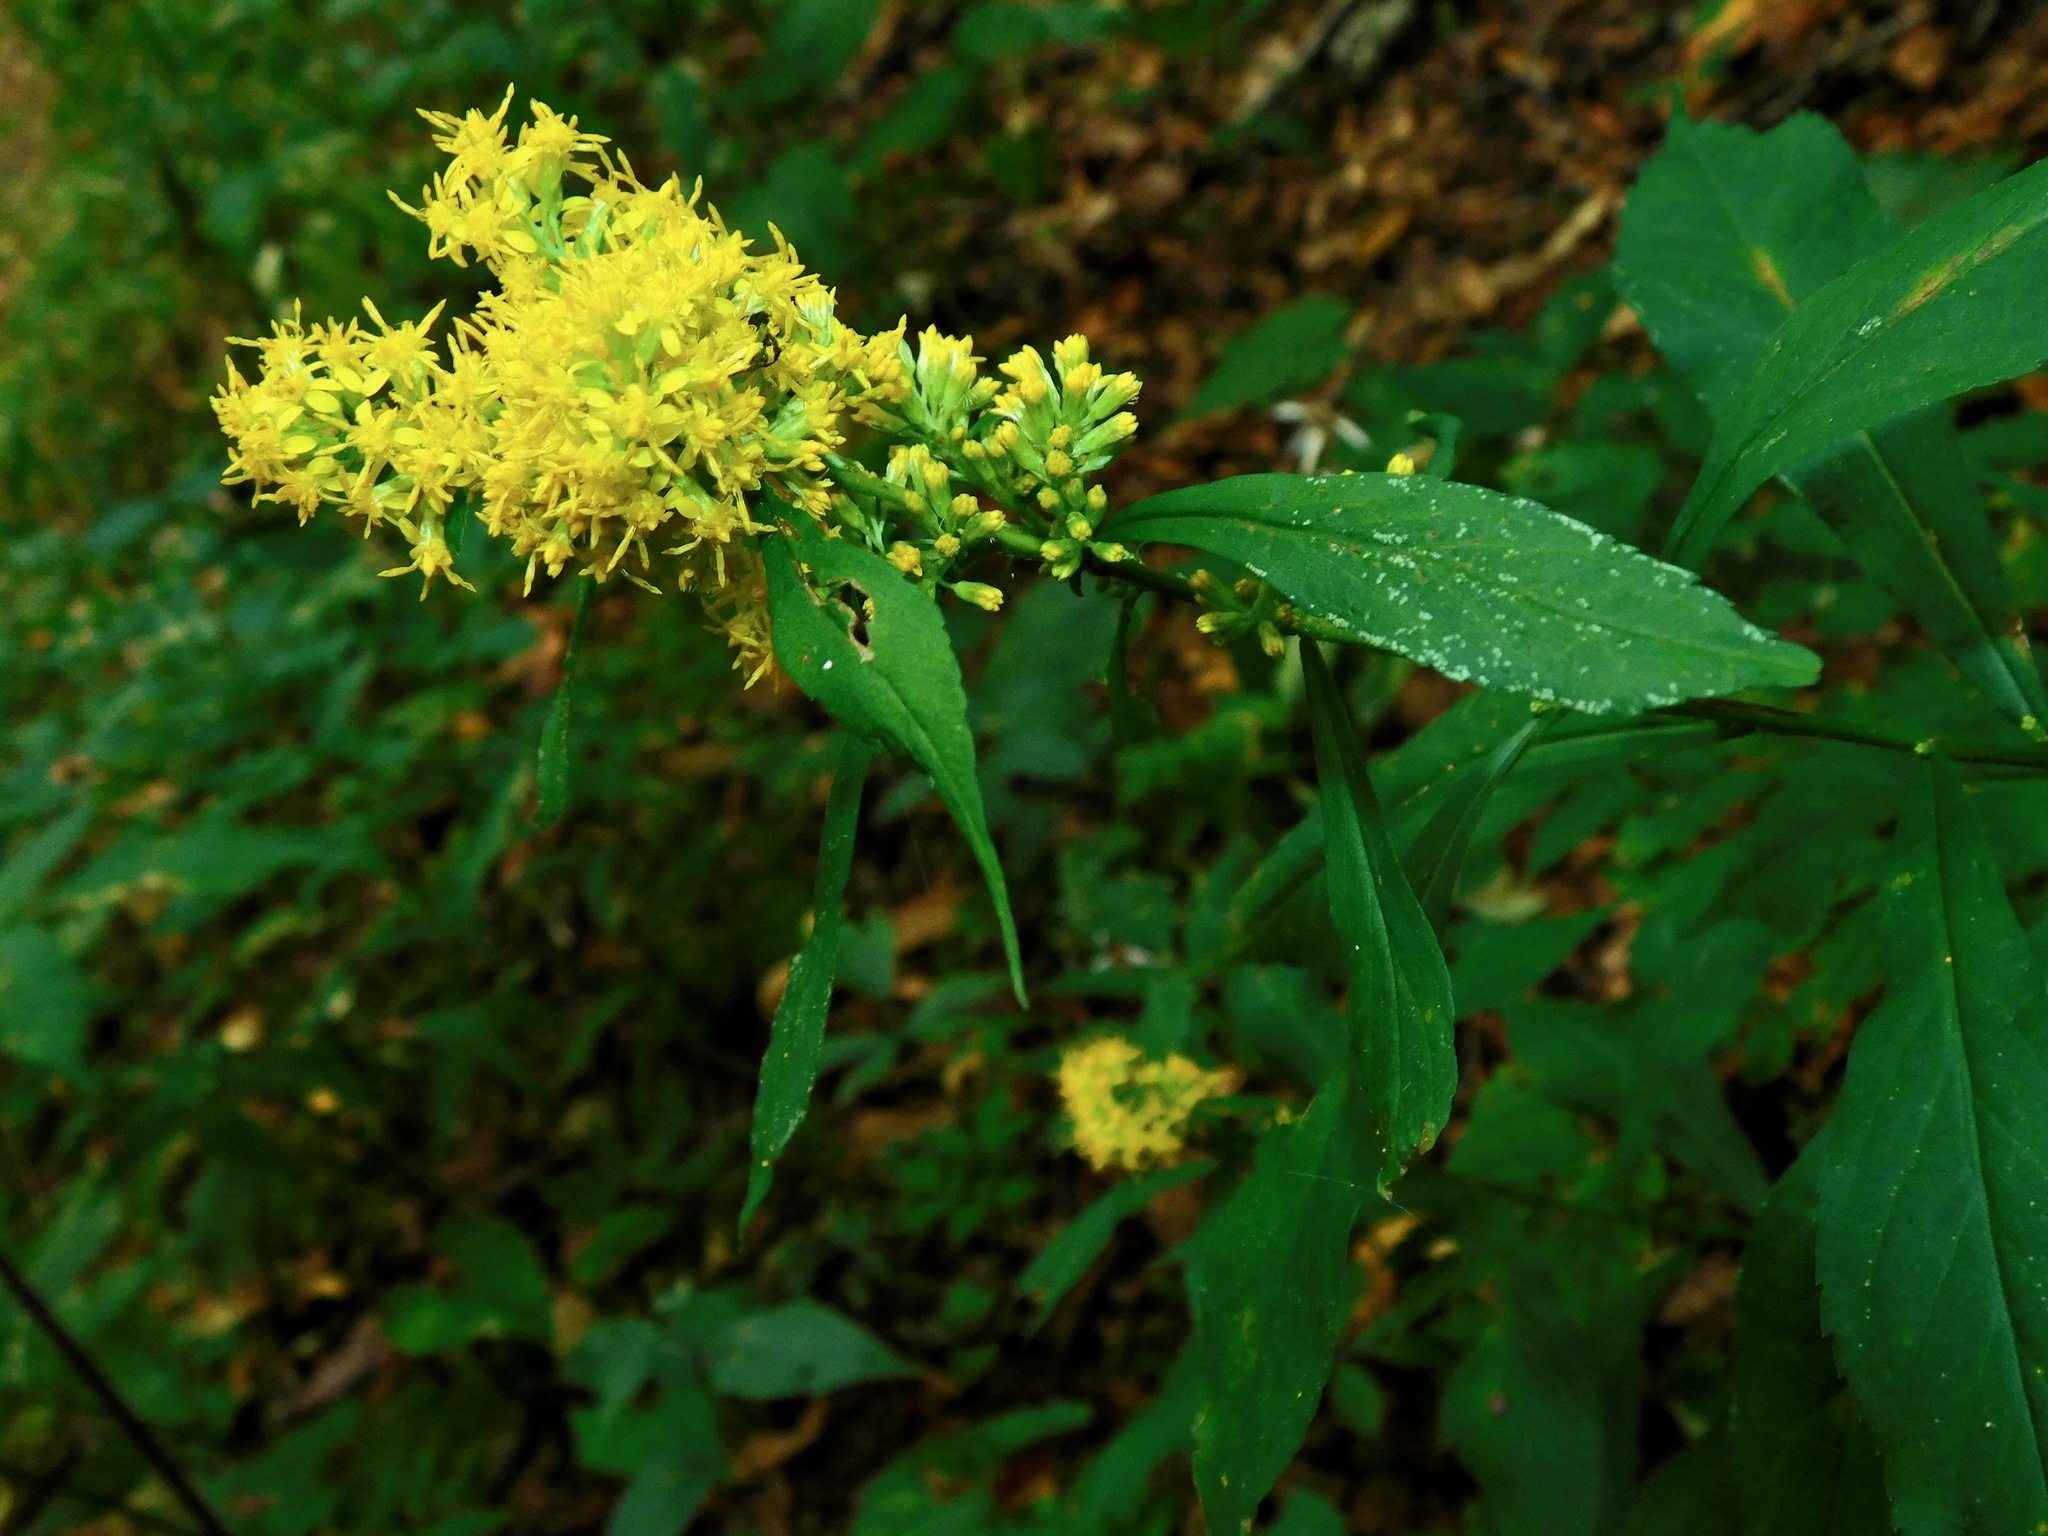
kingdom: Plantae
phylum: Tracheophyta
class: Magnoliopsida
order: Asterales
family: Asteraceae
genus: Solidago
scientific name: Solidago curtisii
